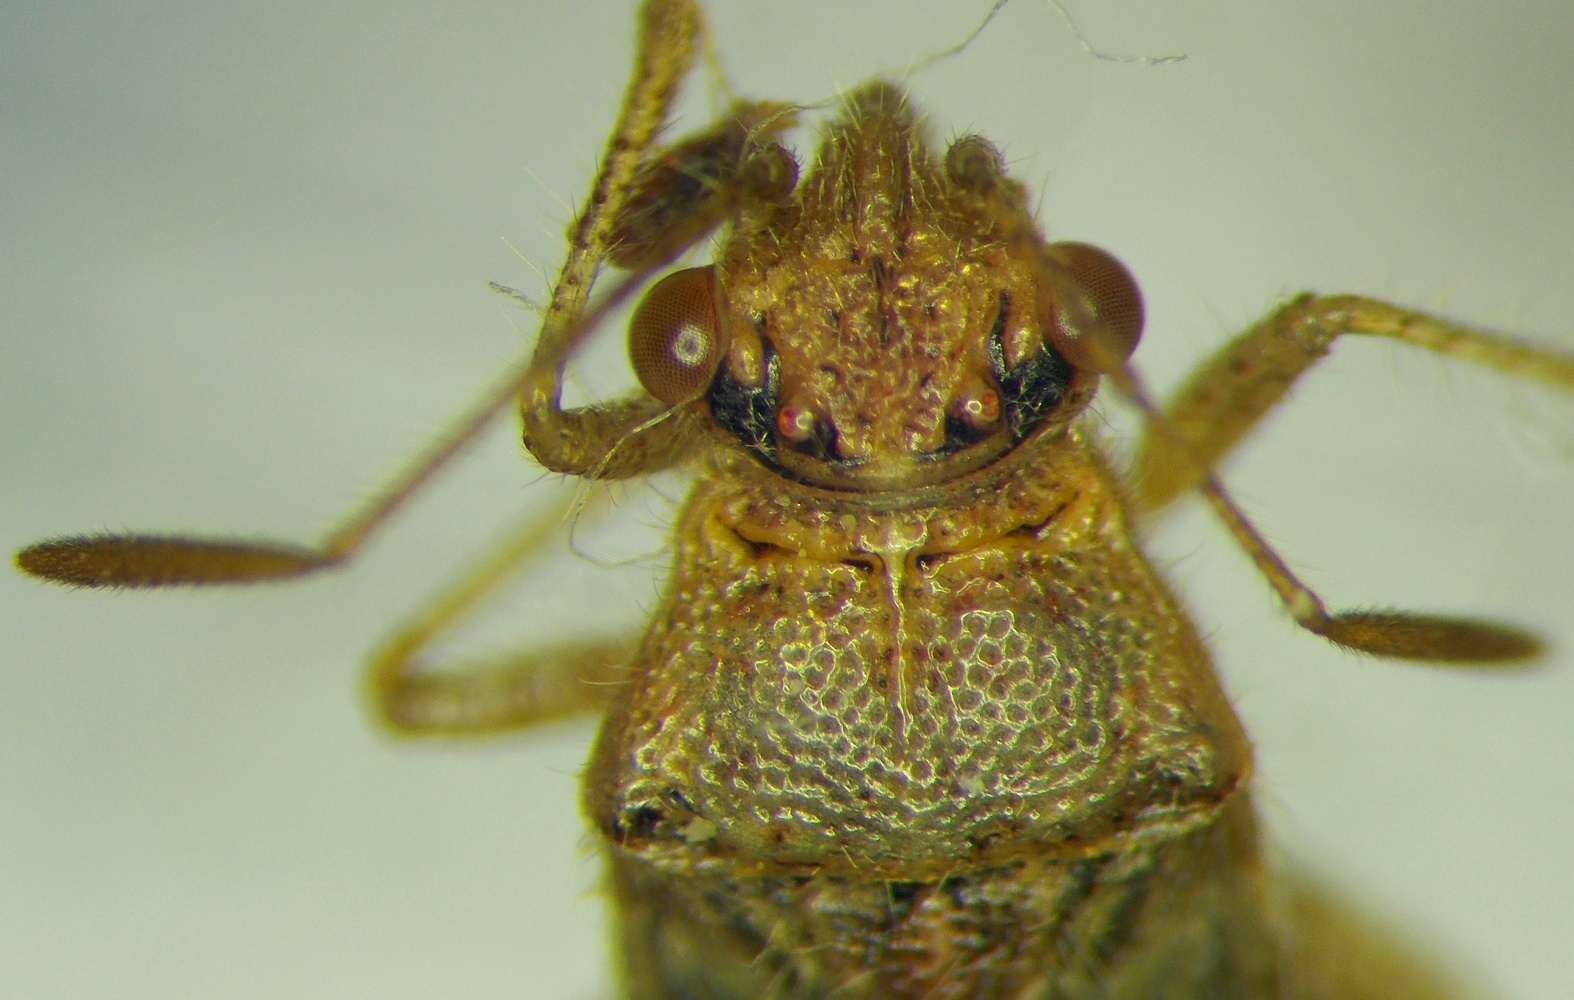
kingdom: Animalia
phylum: Arthropoda
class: Insecta
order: Hemiptera
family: Rhopalidae
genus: Rhopalus
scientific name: Rhopalus parumpunctatus
